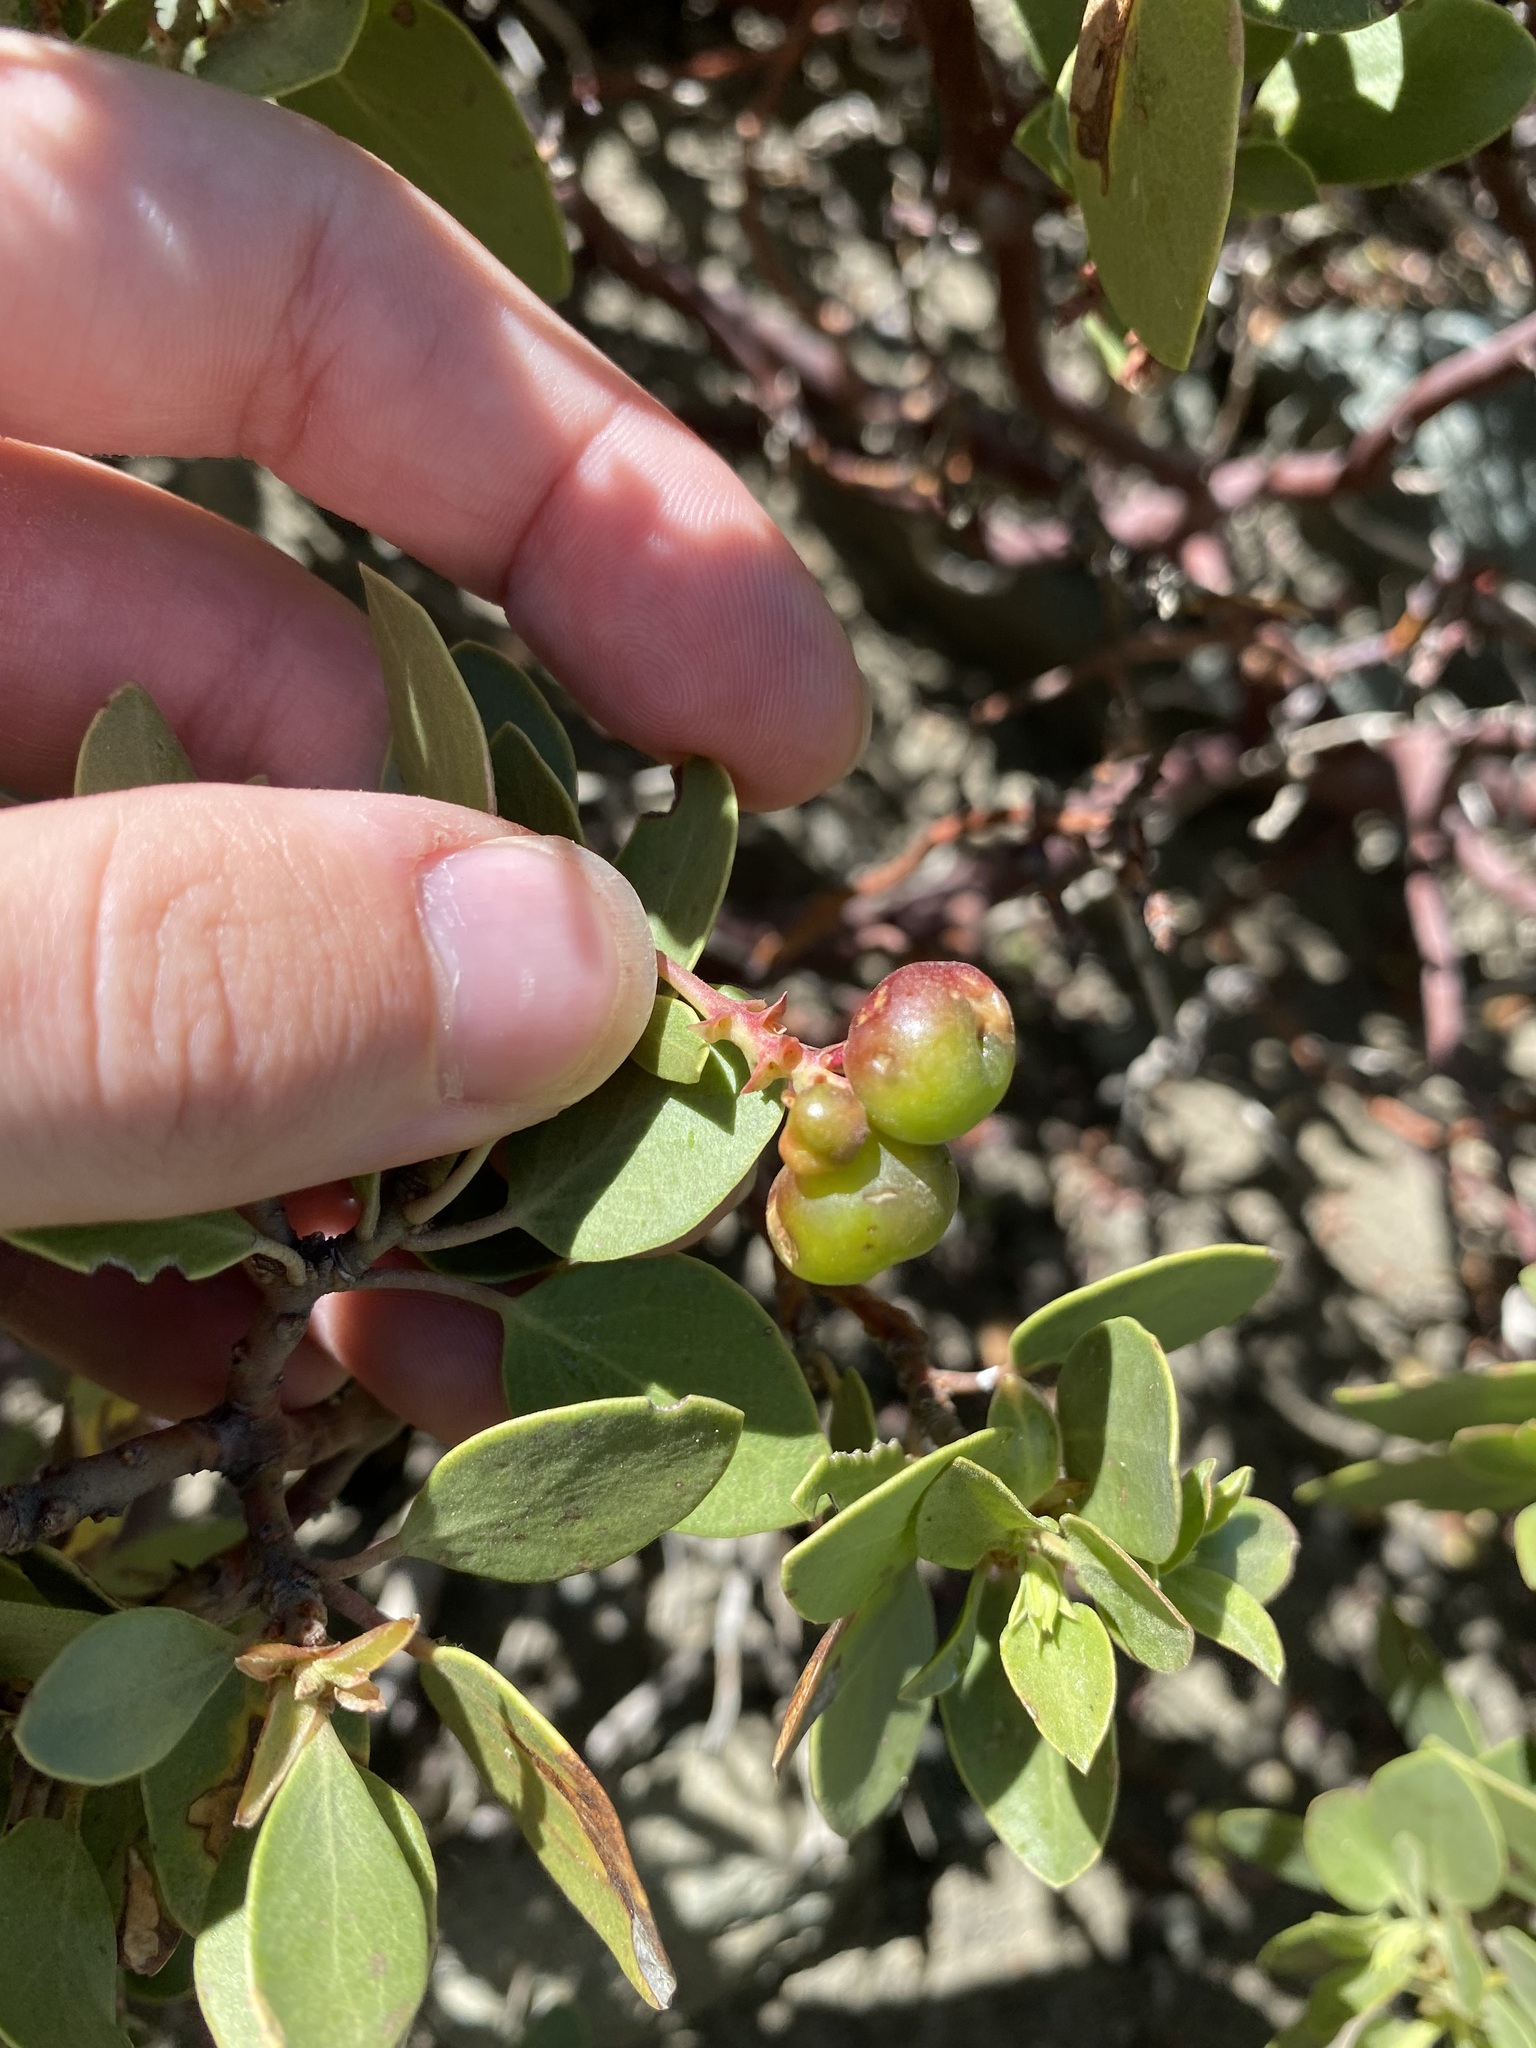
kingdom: Plantae
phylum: Tracheophyta
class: Magnoliopsida
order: Ericales
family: Ericaceae
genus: Arctostaphylos
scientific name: Arctostaphylos patula
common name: Green-leaf manzanita
